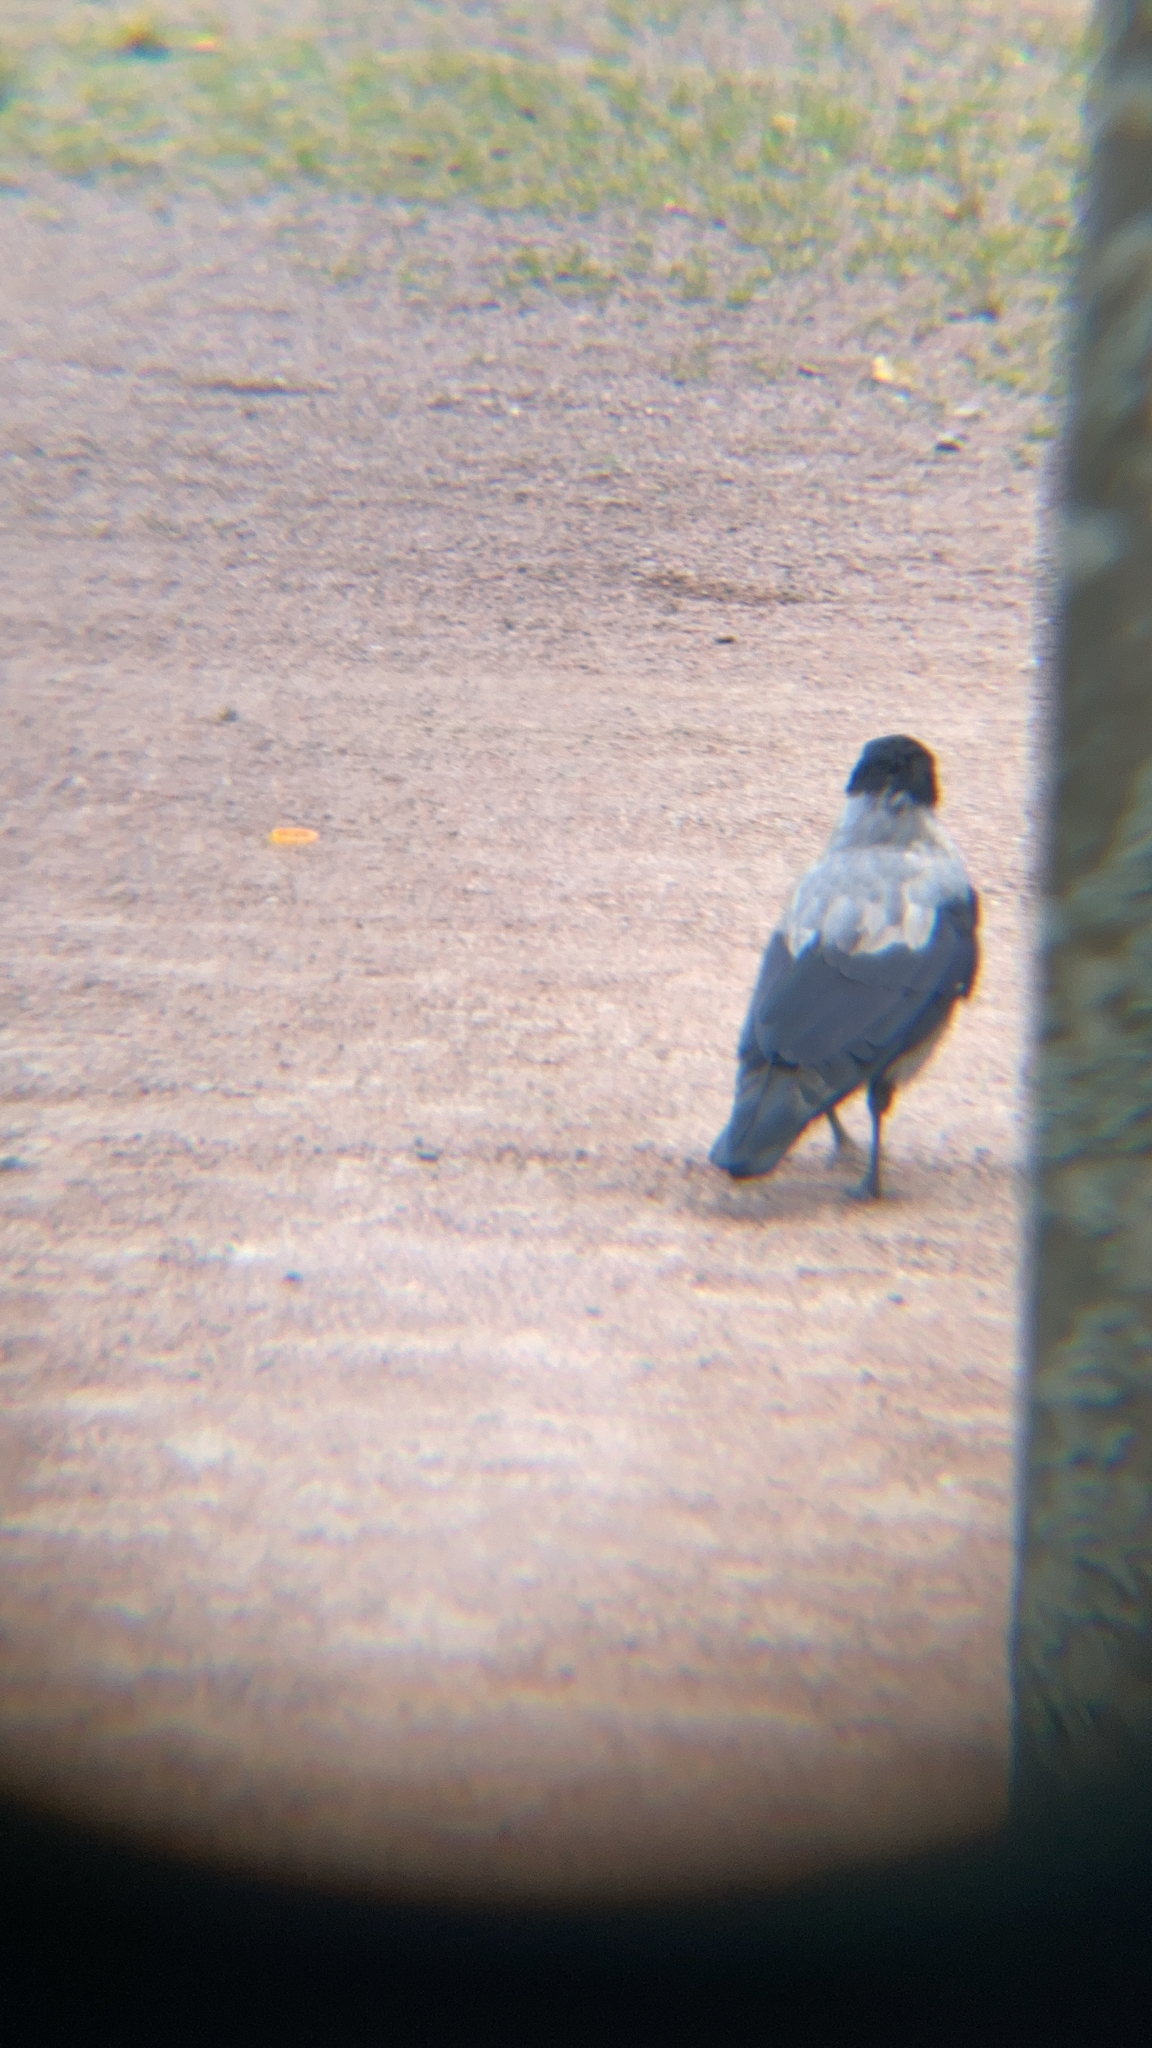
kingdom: Animalia
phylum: Chordata
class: Aves
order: Passeriformes
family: Corvidae
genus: Corvus
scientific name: Corvus cornix
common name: Hooded crow
